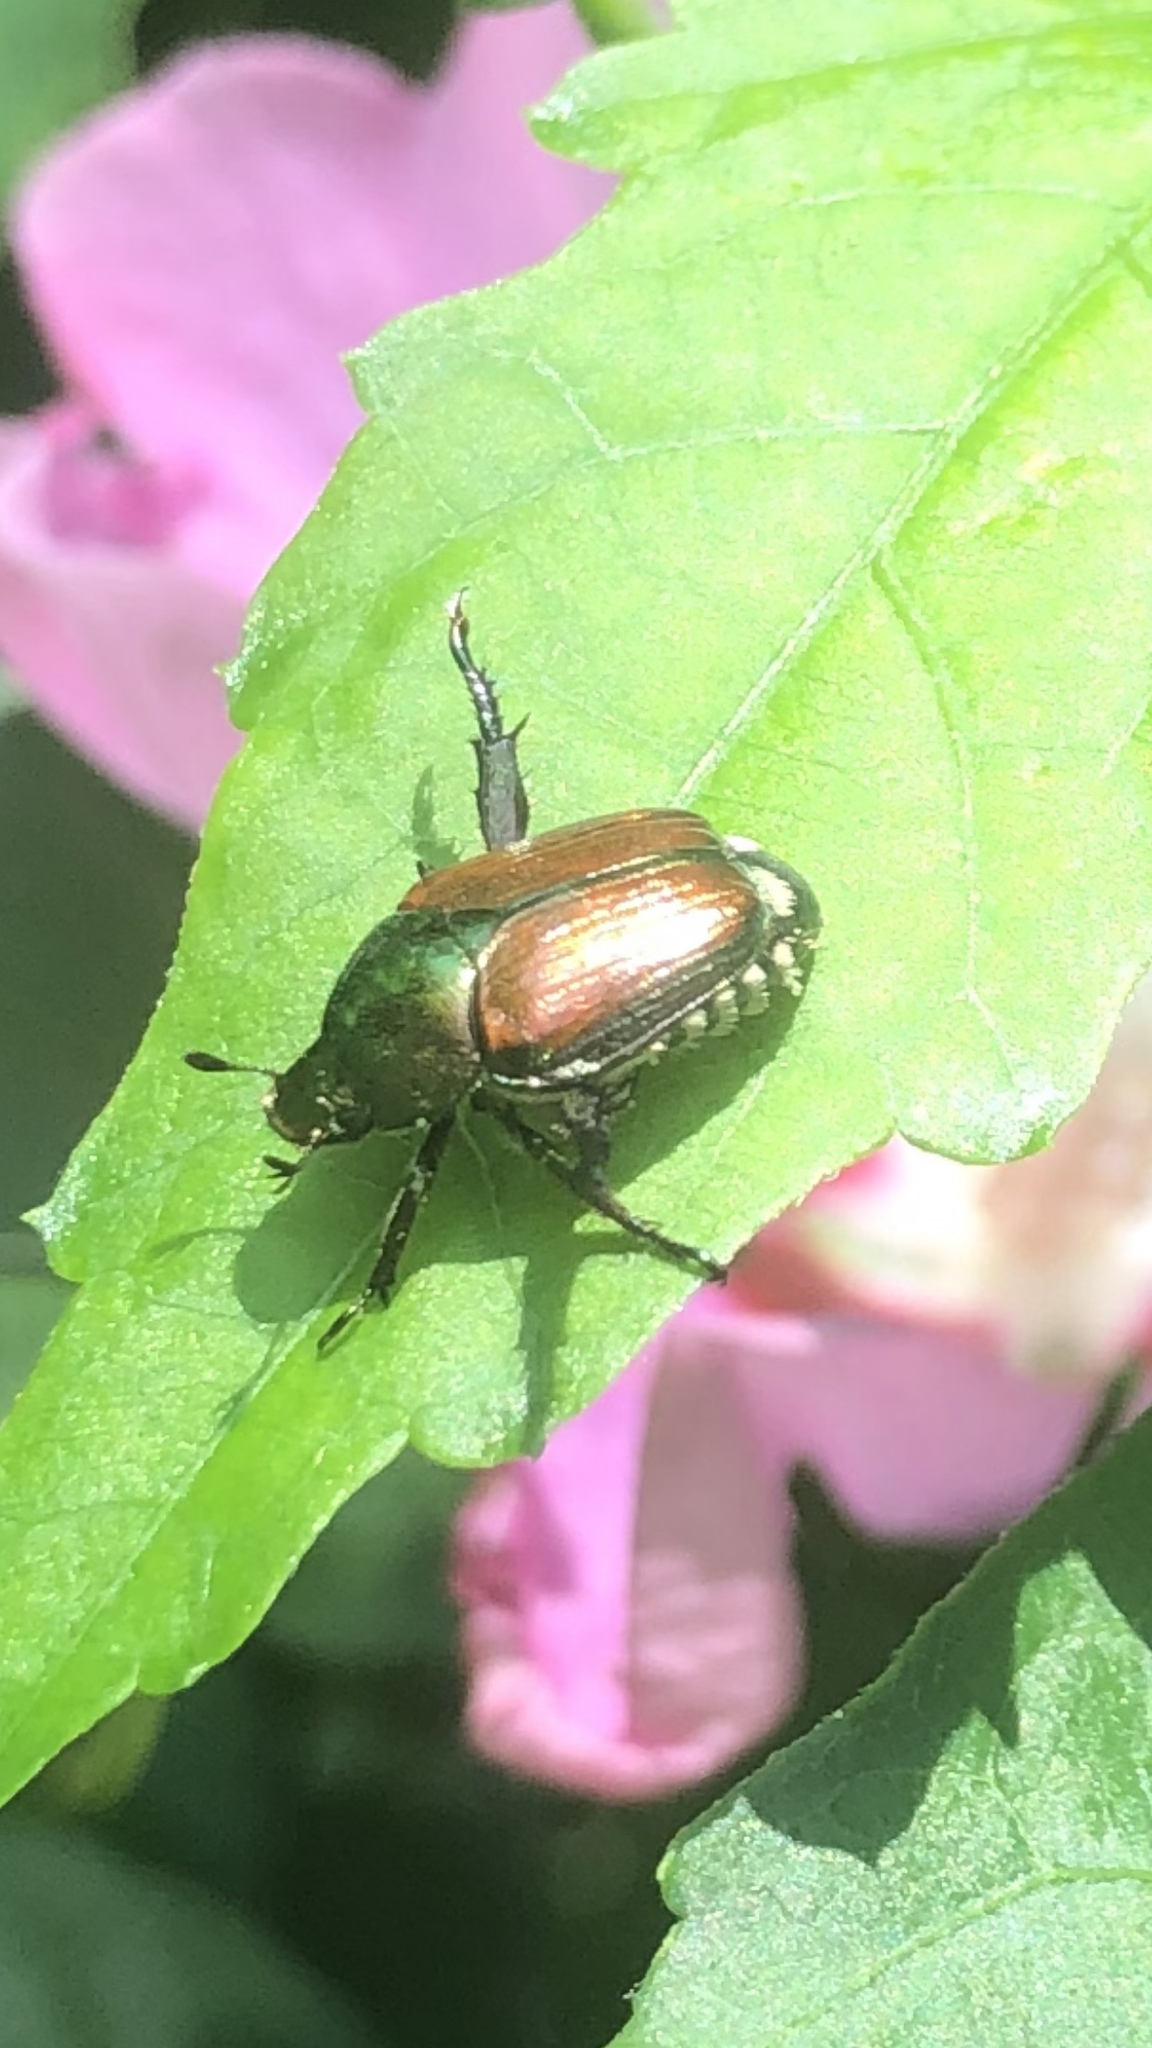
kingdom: Animalia
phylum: Arthropoda
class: Insecta
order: Coleoptera
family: Scarabaeidae
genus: Popillia
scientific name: Popillia japonica
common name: Japanese beetle
